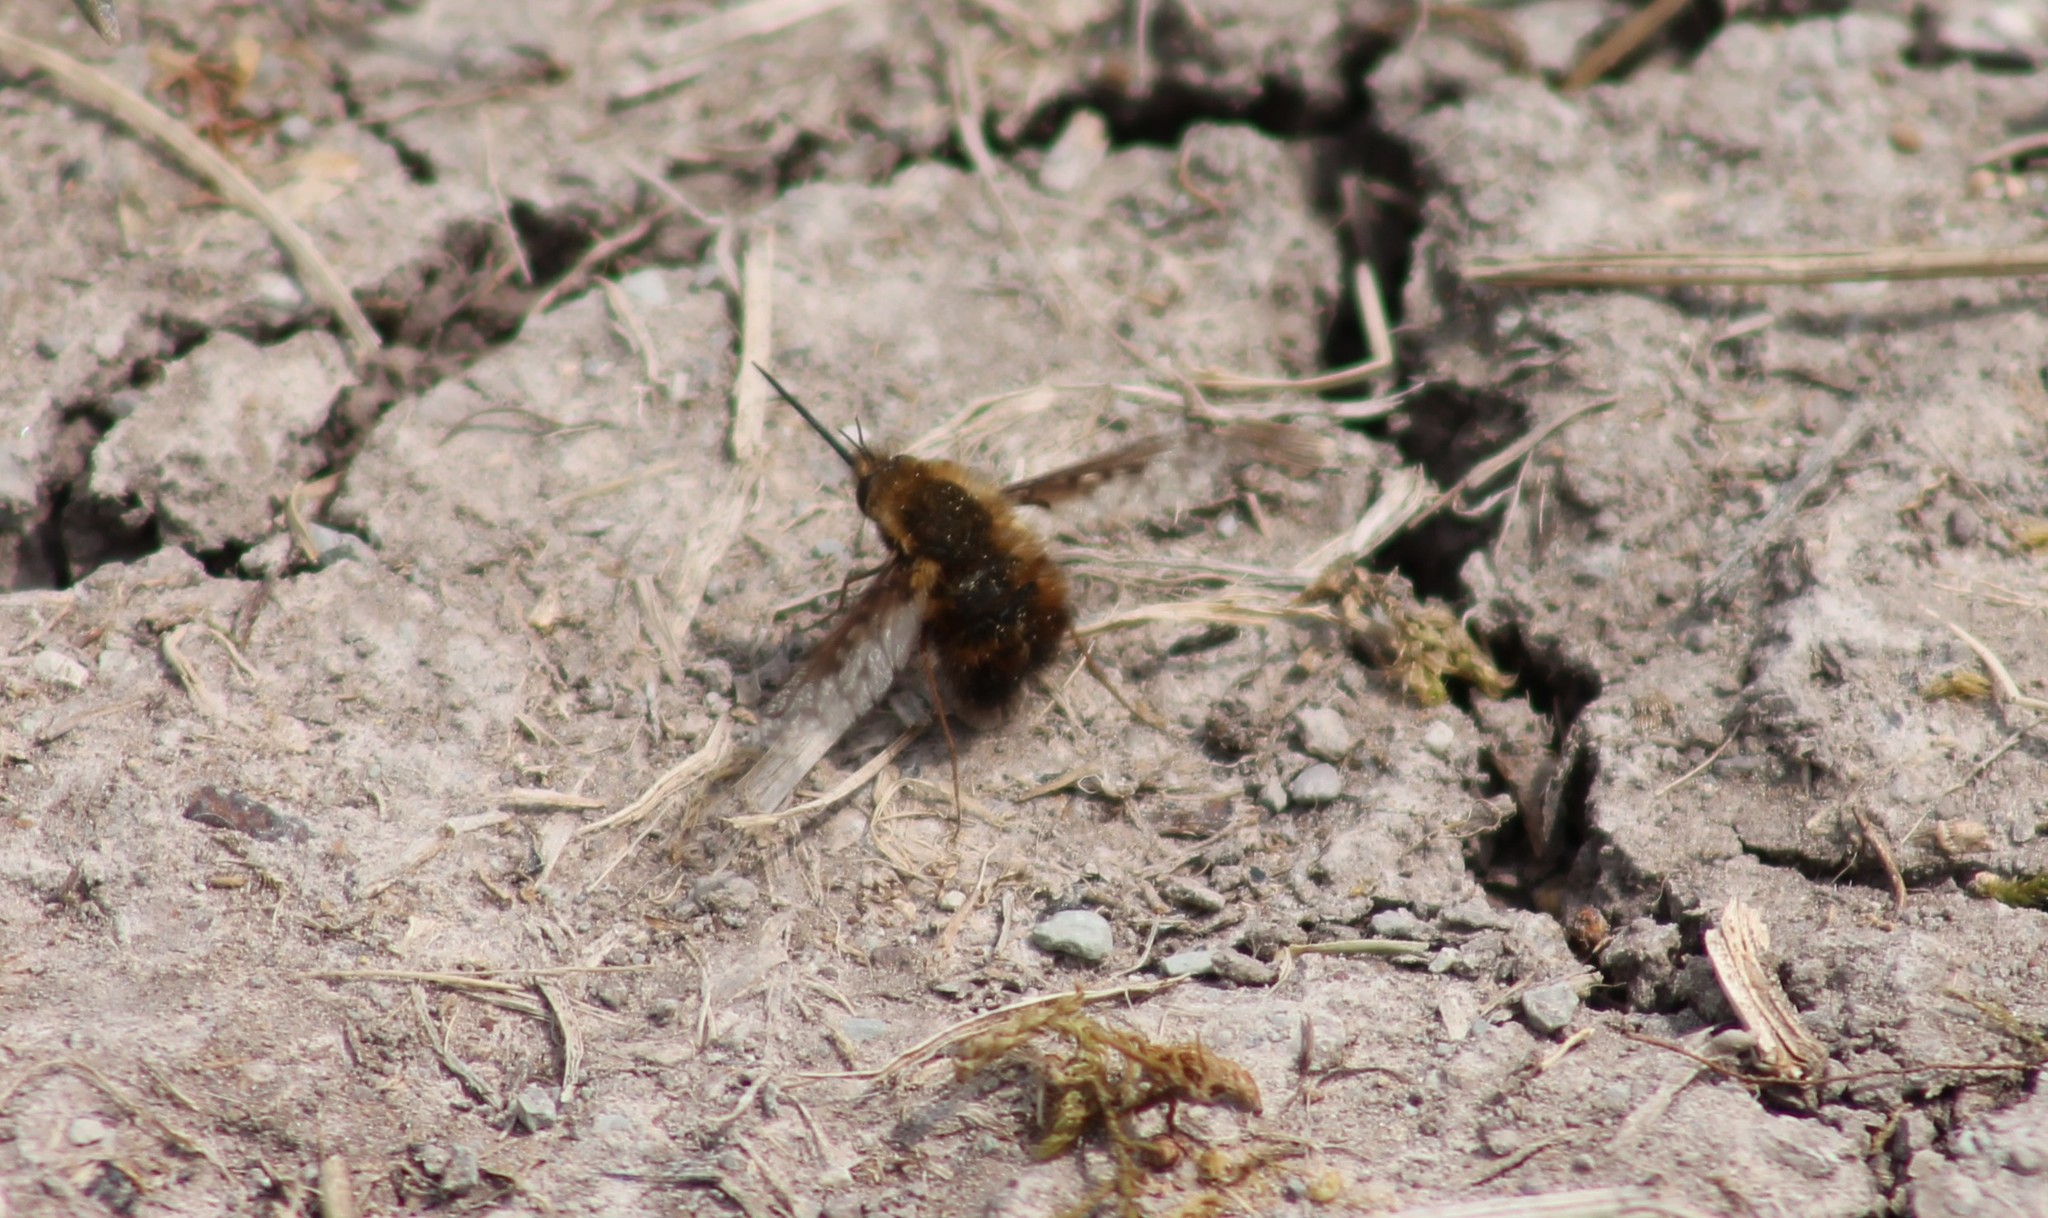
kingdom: Animalia
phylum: Arthropoda
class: Insecta
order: Diptera
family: Bombyliidae
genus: Bombylius
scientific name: Bombylius discolor
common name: Dotted bee-fly
